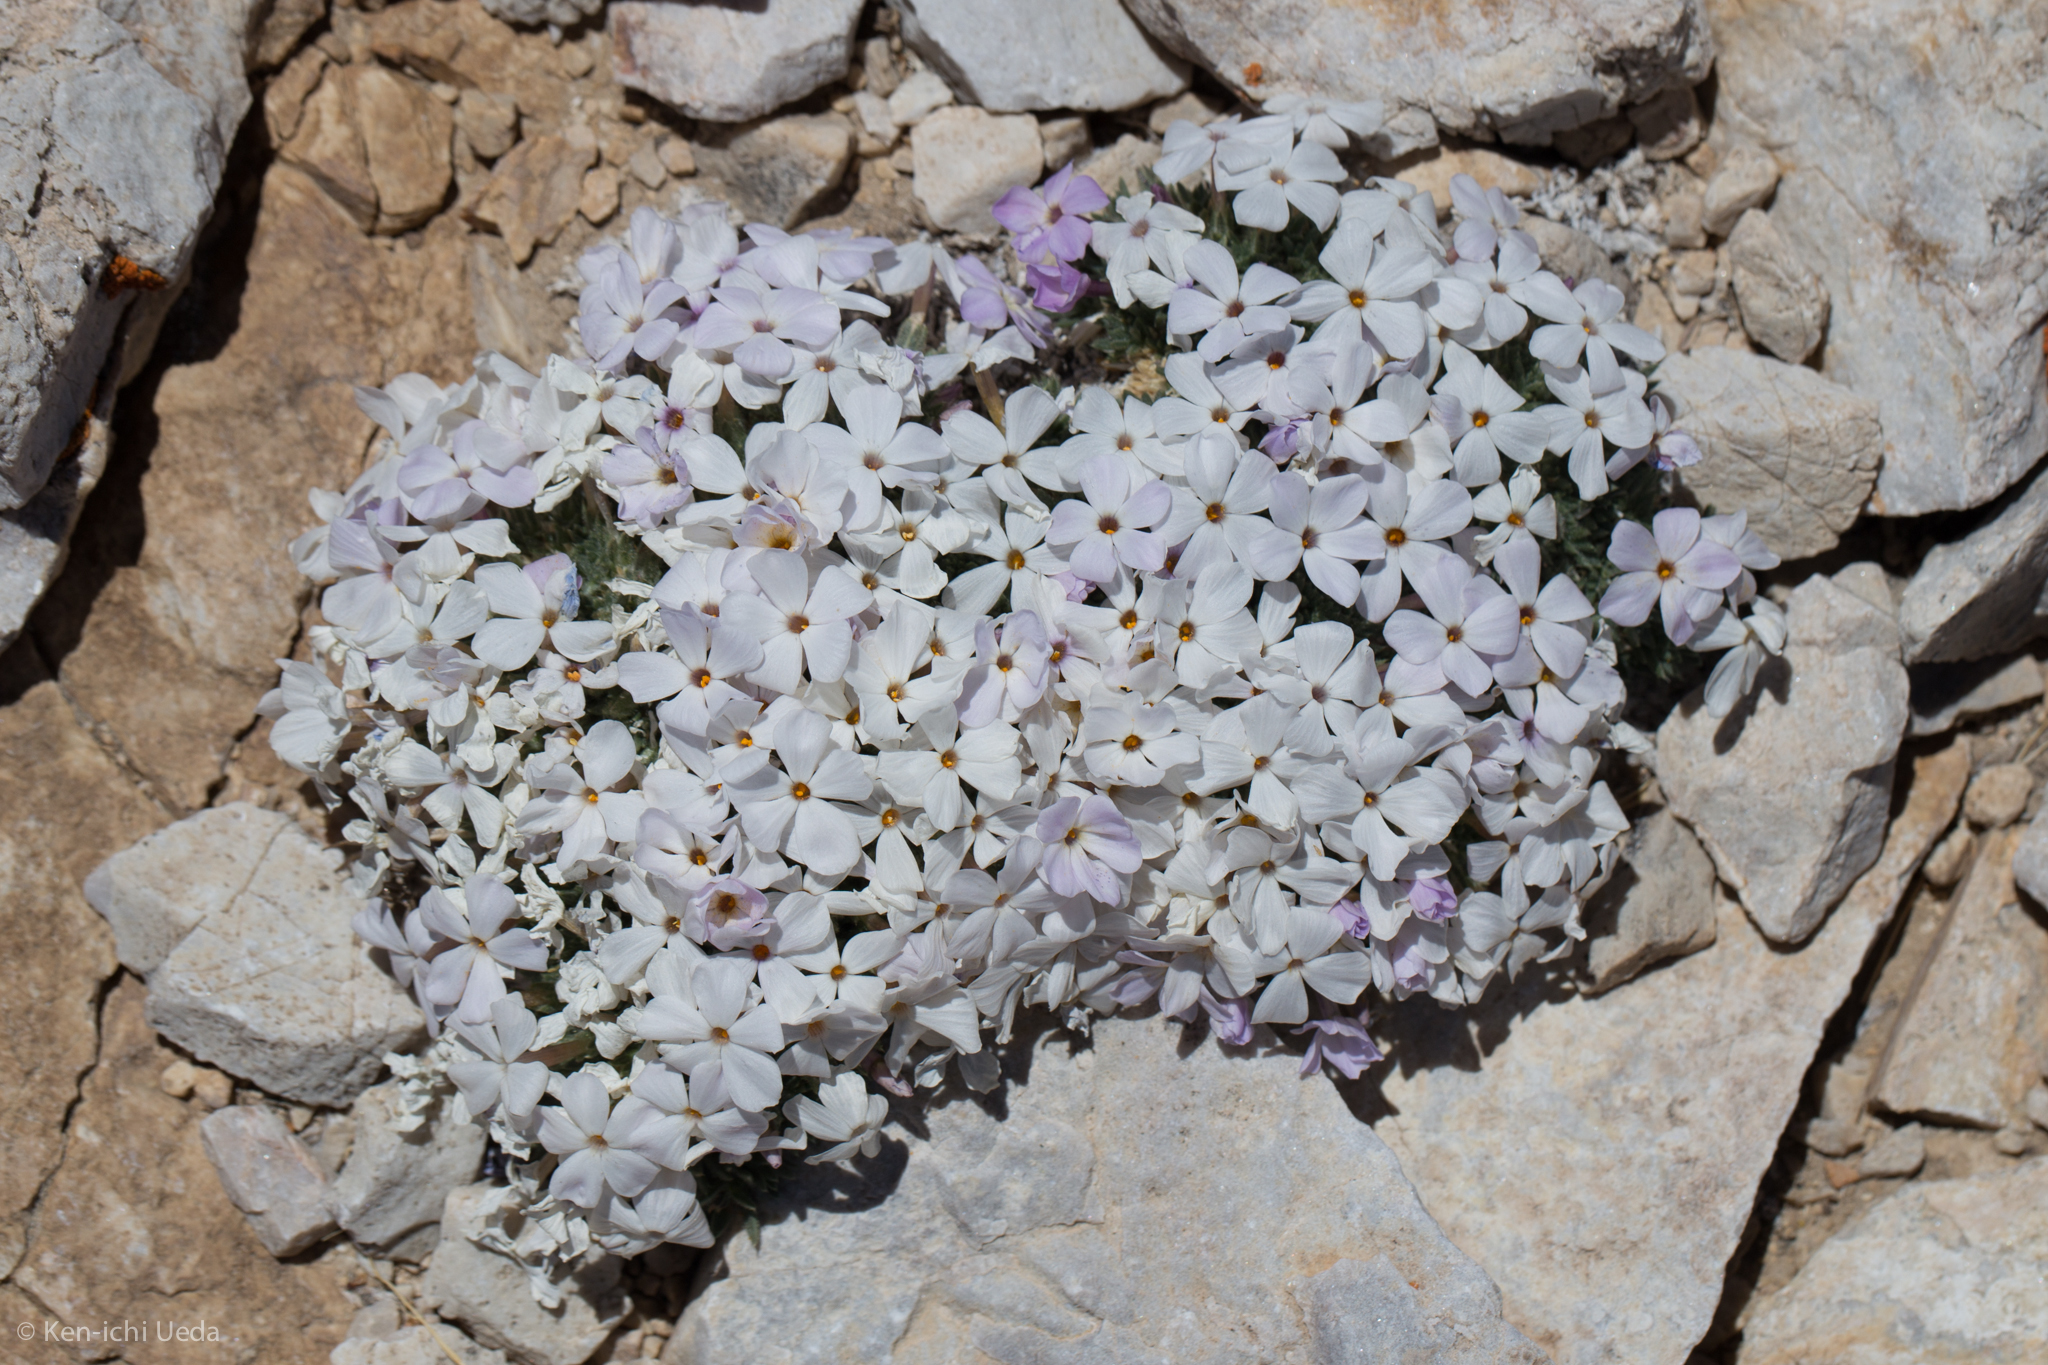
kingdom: Plantae
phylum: Tracheophyta
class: Magnoliopsida
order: Ericales
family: Polemoniaceae
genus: Phlox
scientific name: Phlox condensata
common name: Compact phlox
